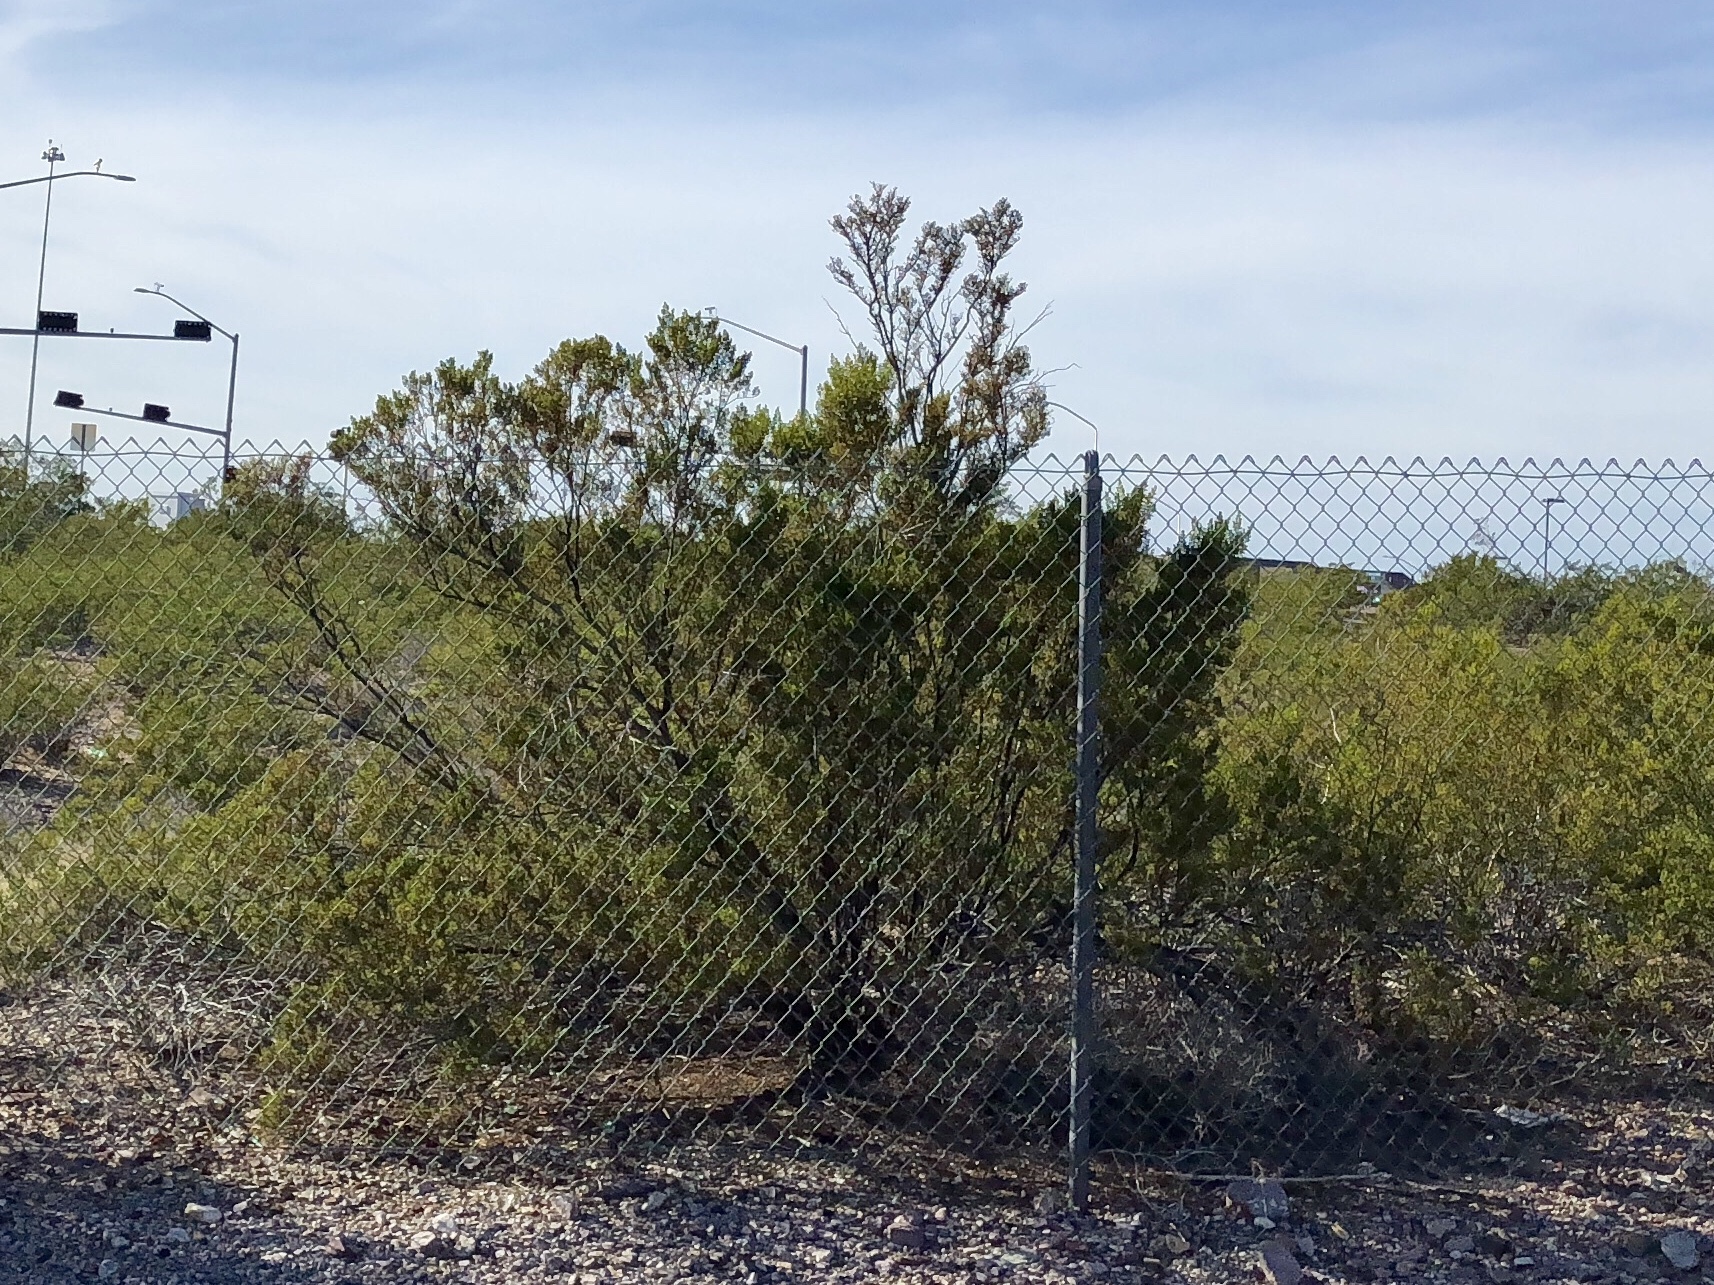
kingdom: Plantae
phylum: Tracheophyta
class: Magnoliopsida
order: Zygophyllales
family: Zygophyllaceae
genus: Larrea
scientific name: Larrea tridentata
